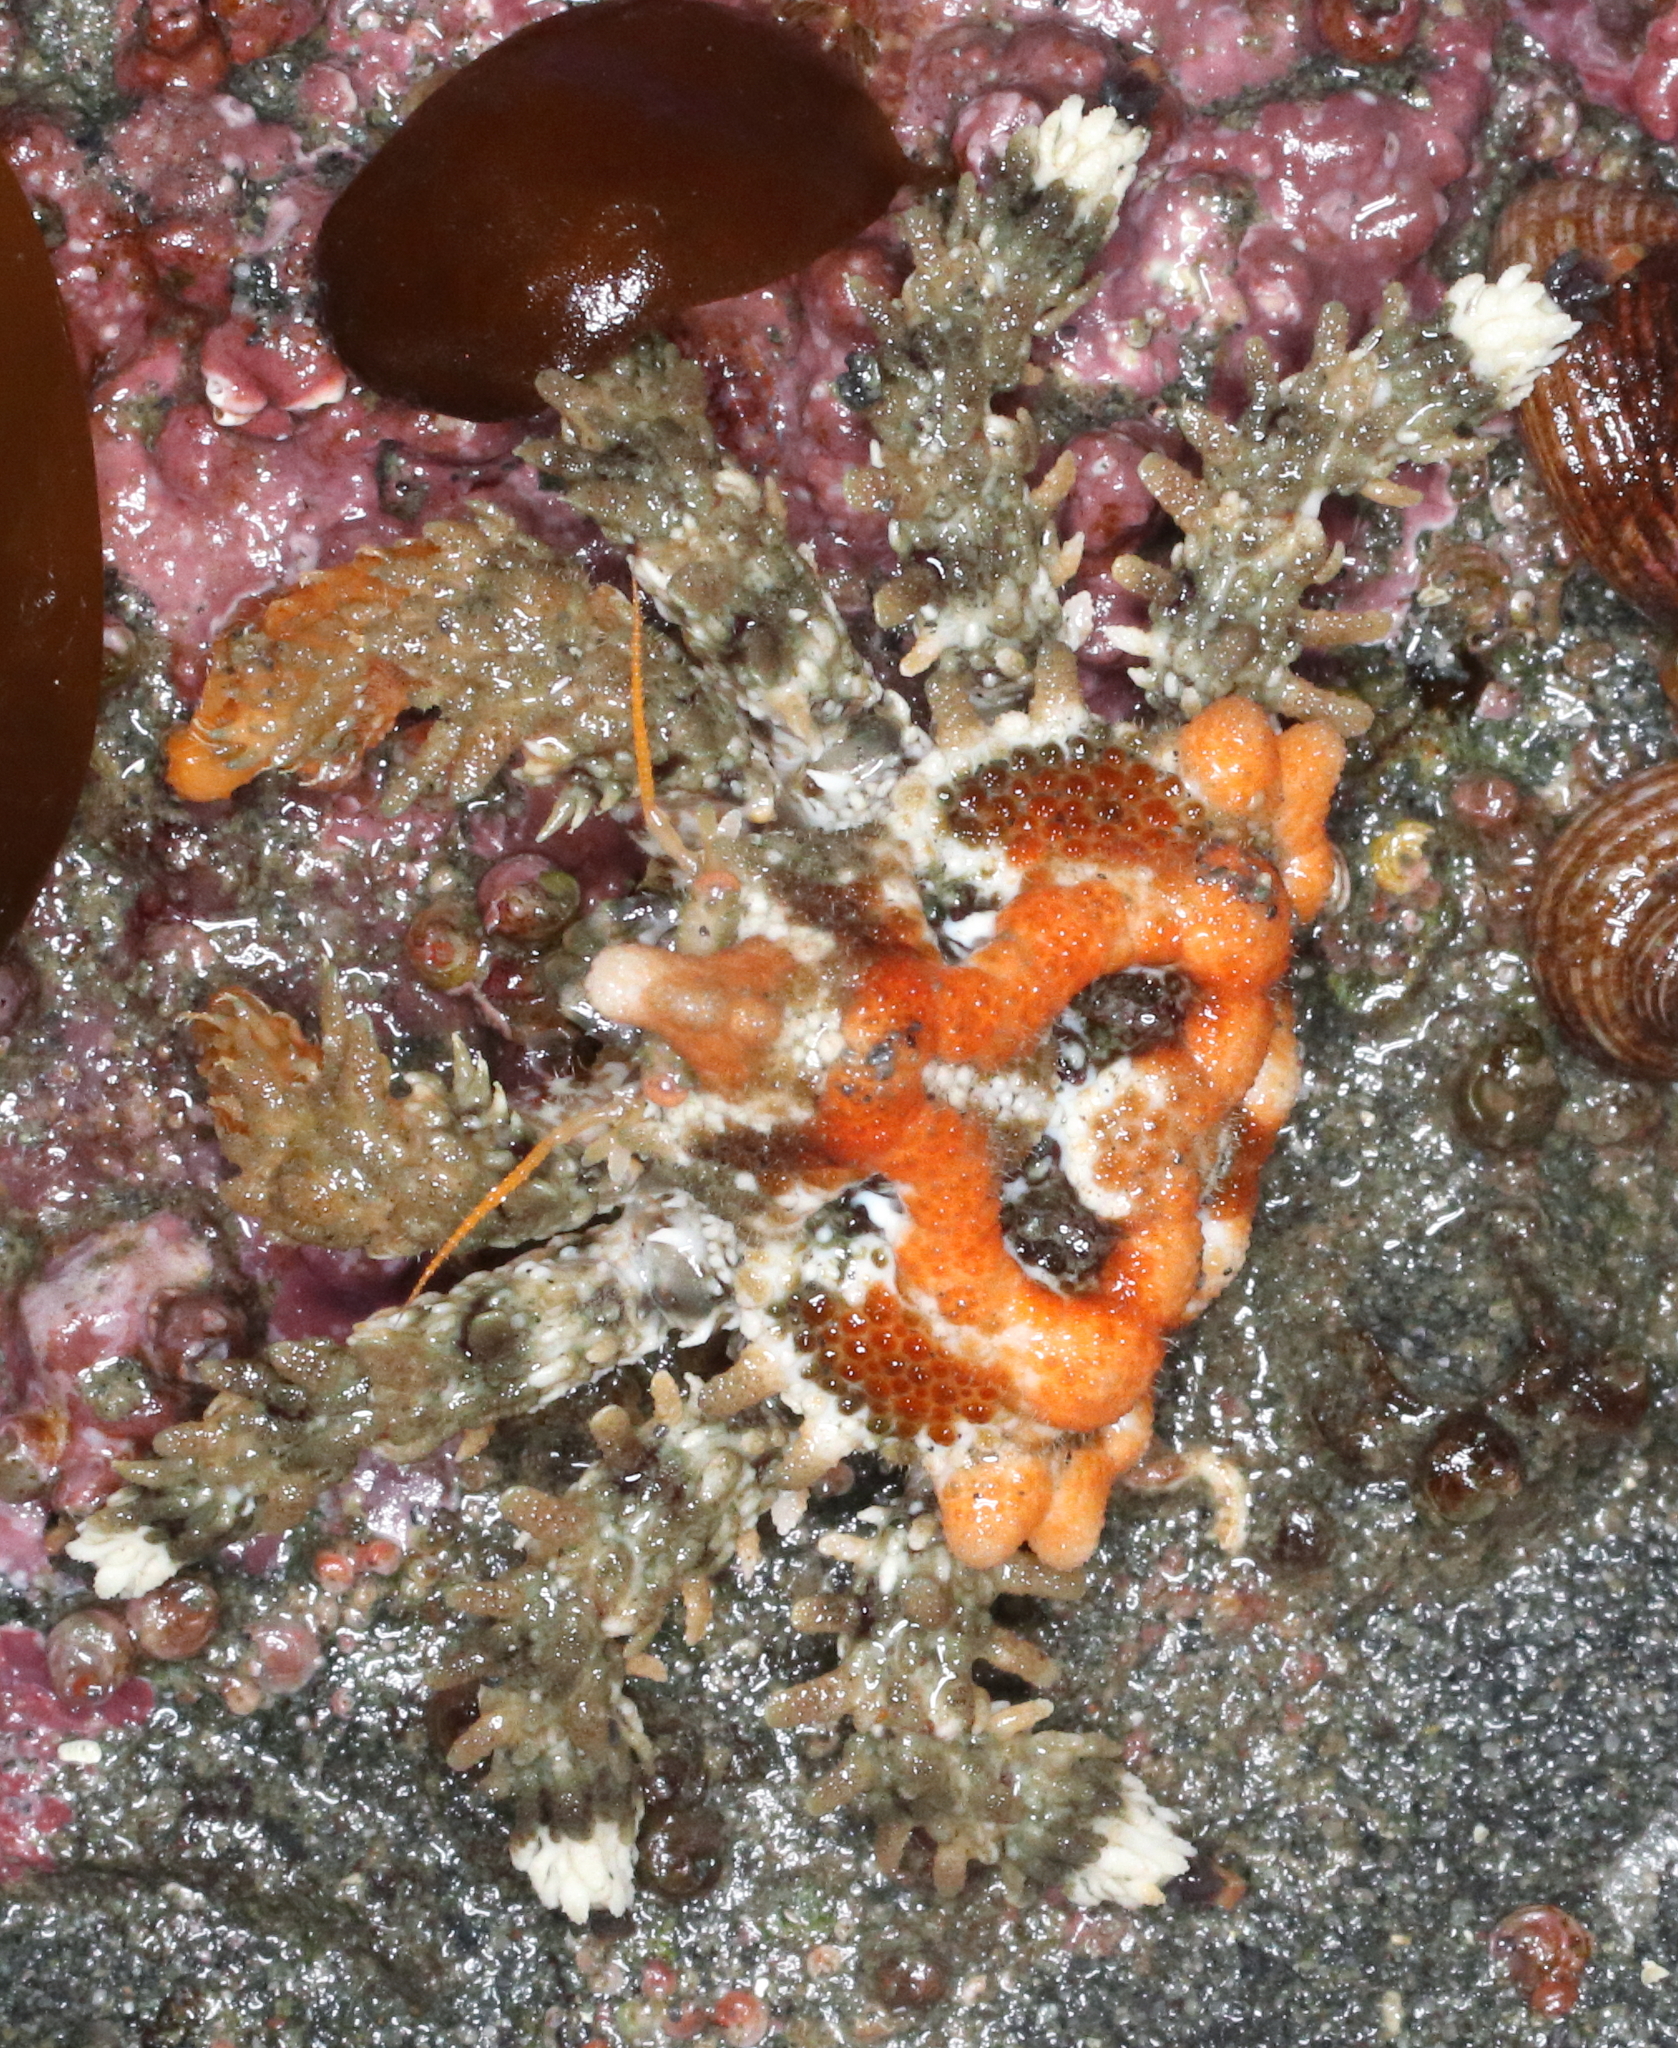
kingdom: Animalia
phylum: Arthropoda
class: Malacostraca
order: Decapoda
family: Lithodidae
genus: Phyllolithodes
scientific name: Phyllolithodes papillosus
